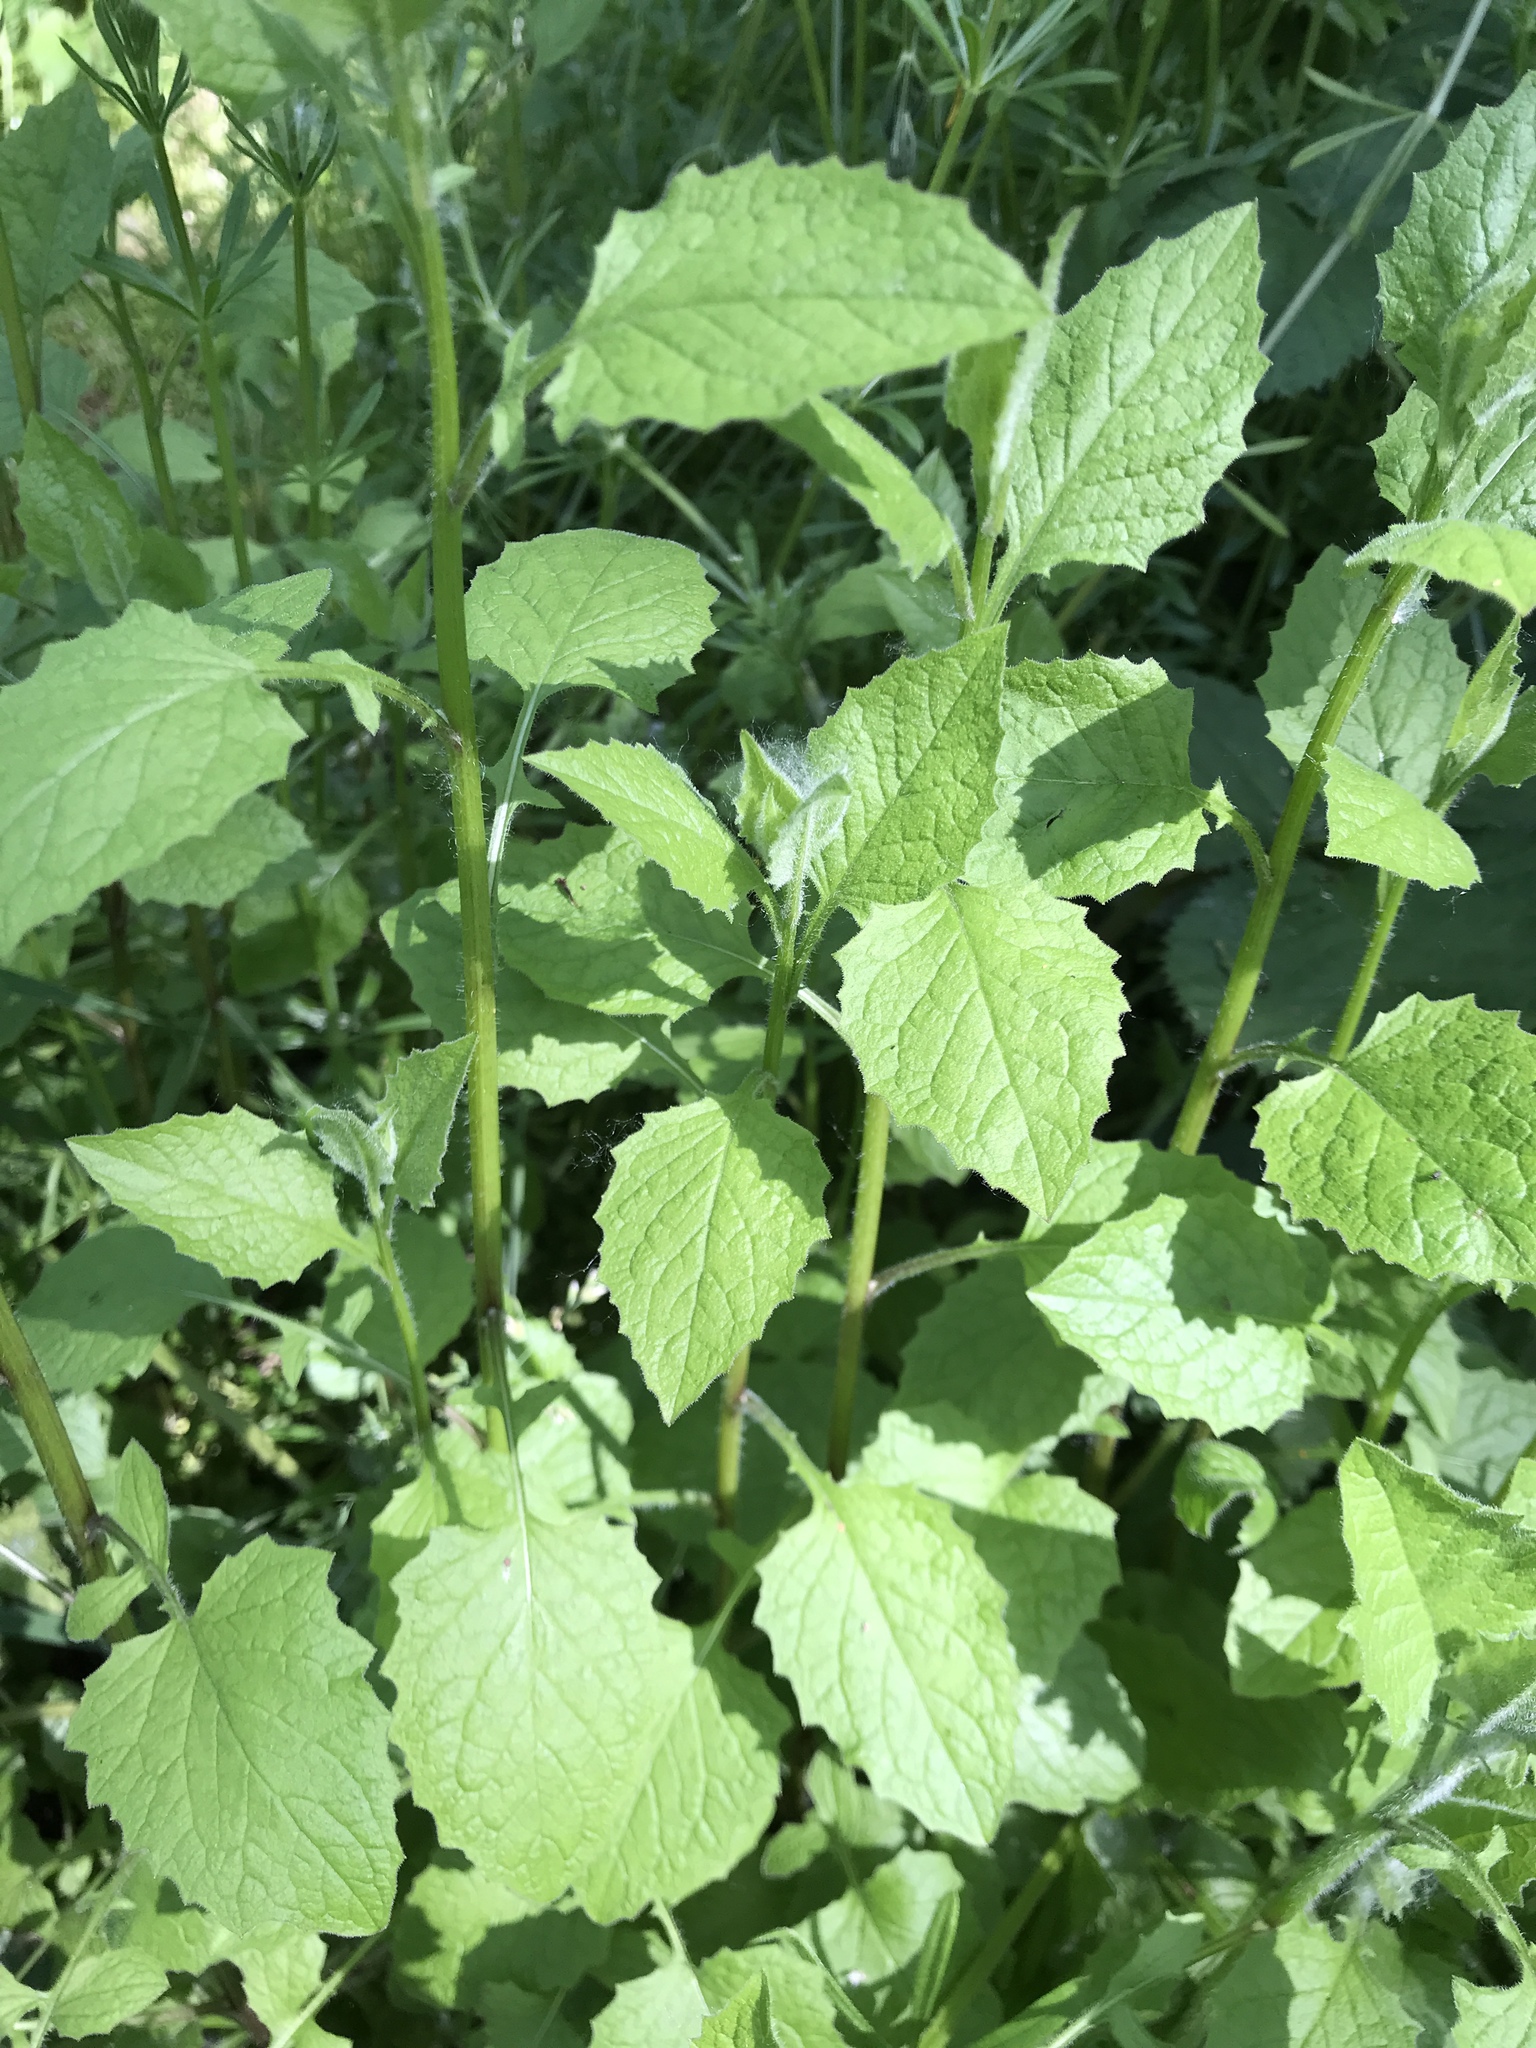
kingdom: Plantae
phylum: Tracheophyta
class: Magnoliopsida
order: Asterales
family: Asteraceae
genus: Lapsana
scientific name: Lapsana communis
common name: Nipplewort
